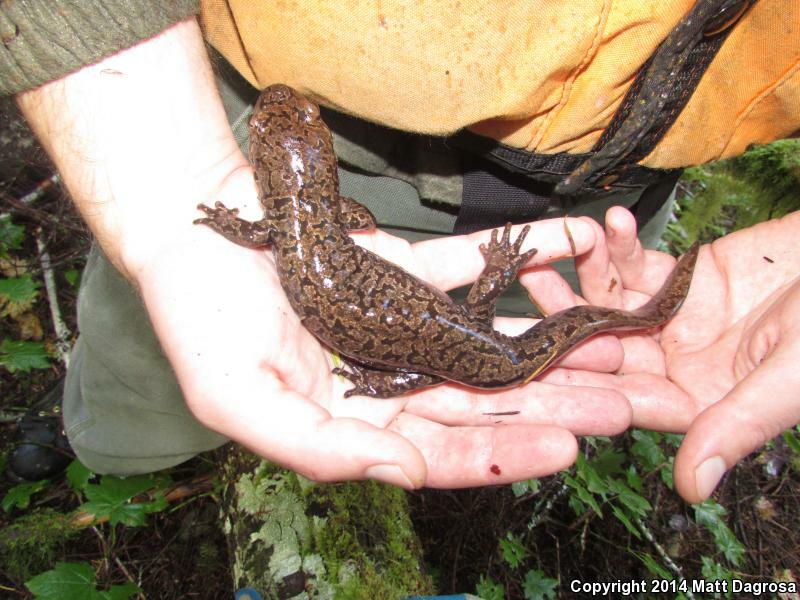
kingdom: Animalia
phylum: Chordata
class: Amphibia
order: Caudata
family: Ambystomatidae
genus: Dicamptodon
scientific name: Dicamptodon tenebrosus
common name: Coastal giant salamander
